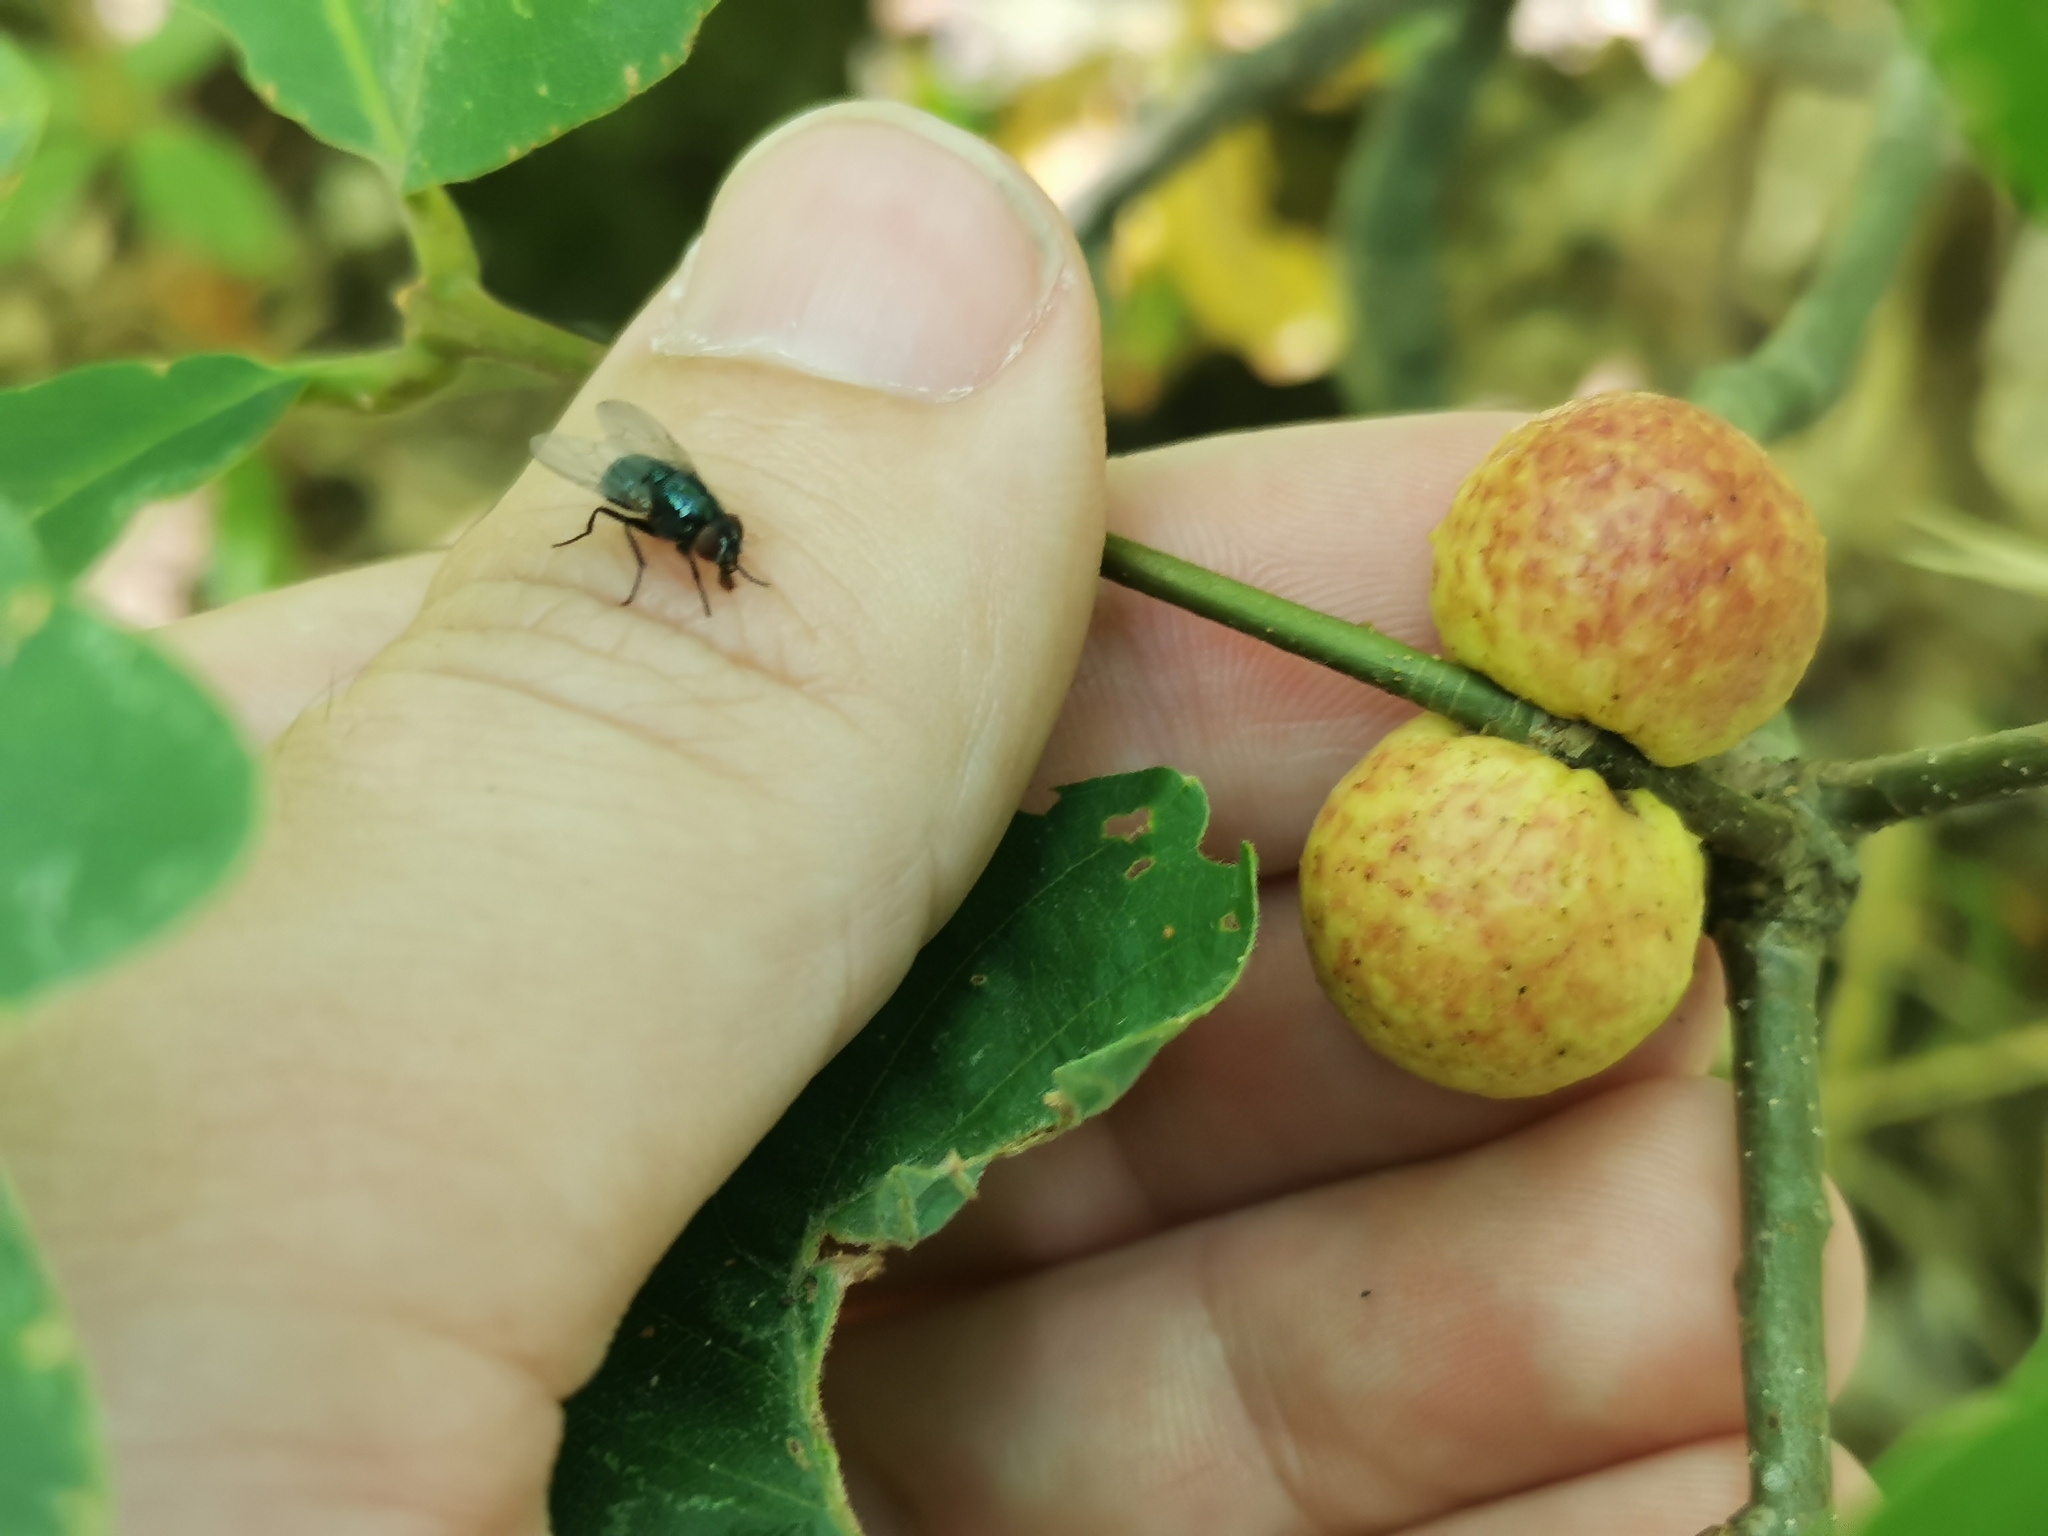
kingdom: Animalia
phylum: Arthropoda
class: Insecta
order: Hymenoptera
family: Cynipidae
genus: Disholcaspis
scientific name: Disholcaspis quercusglobulus
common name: Round bullet gall wasp
